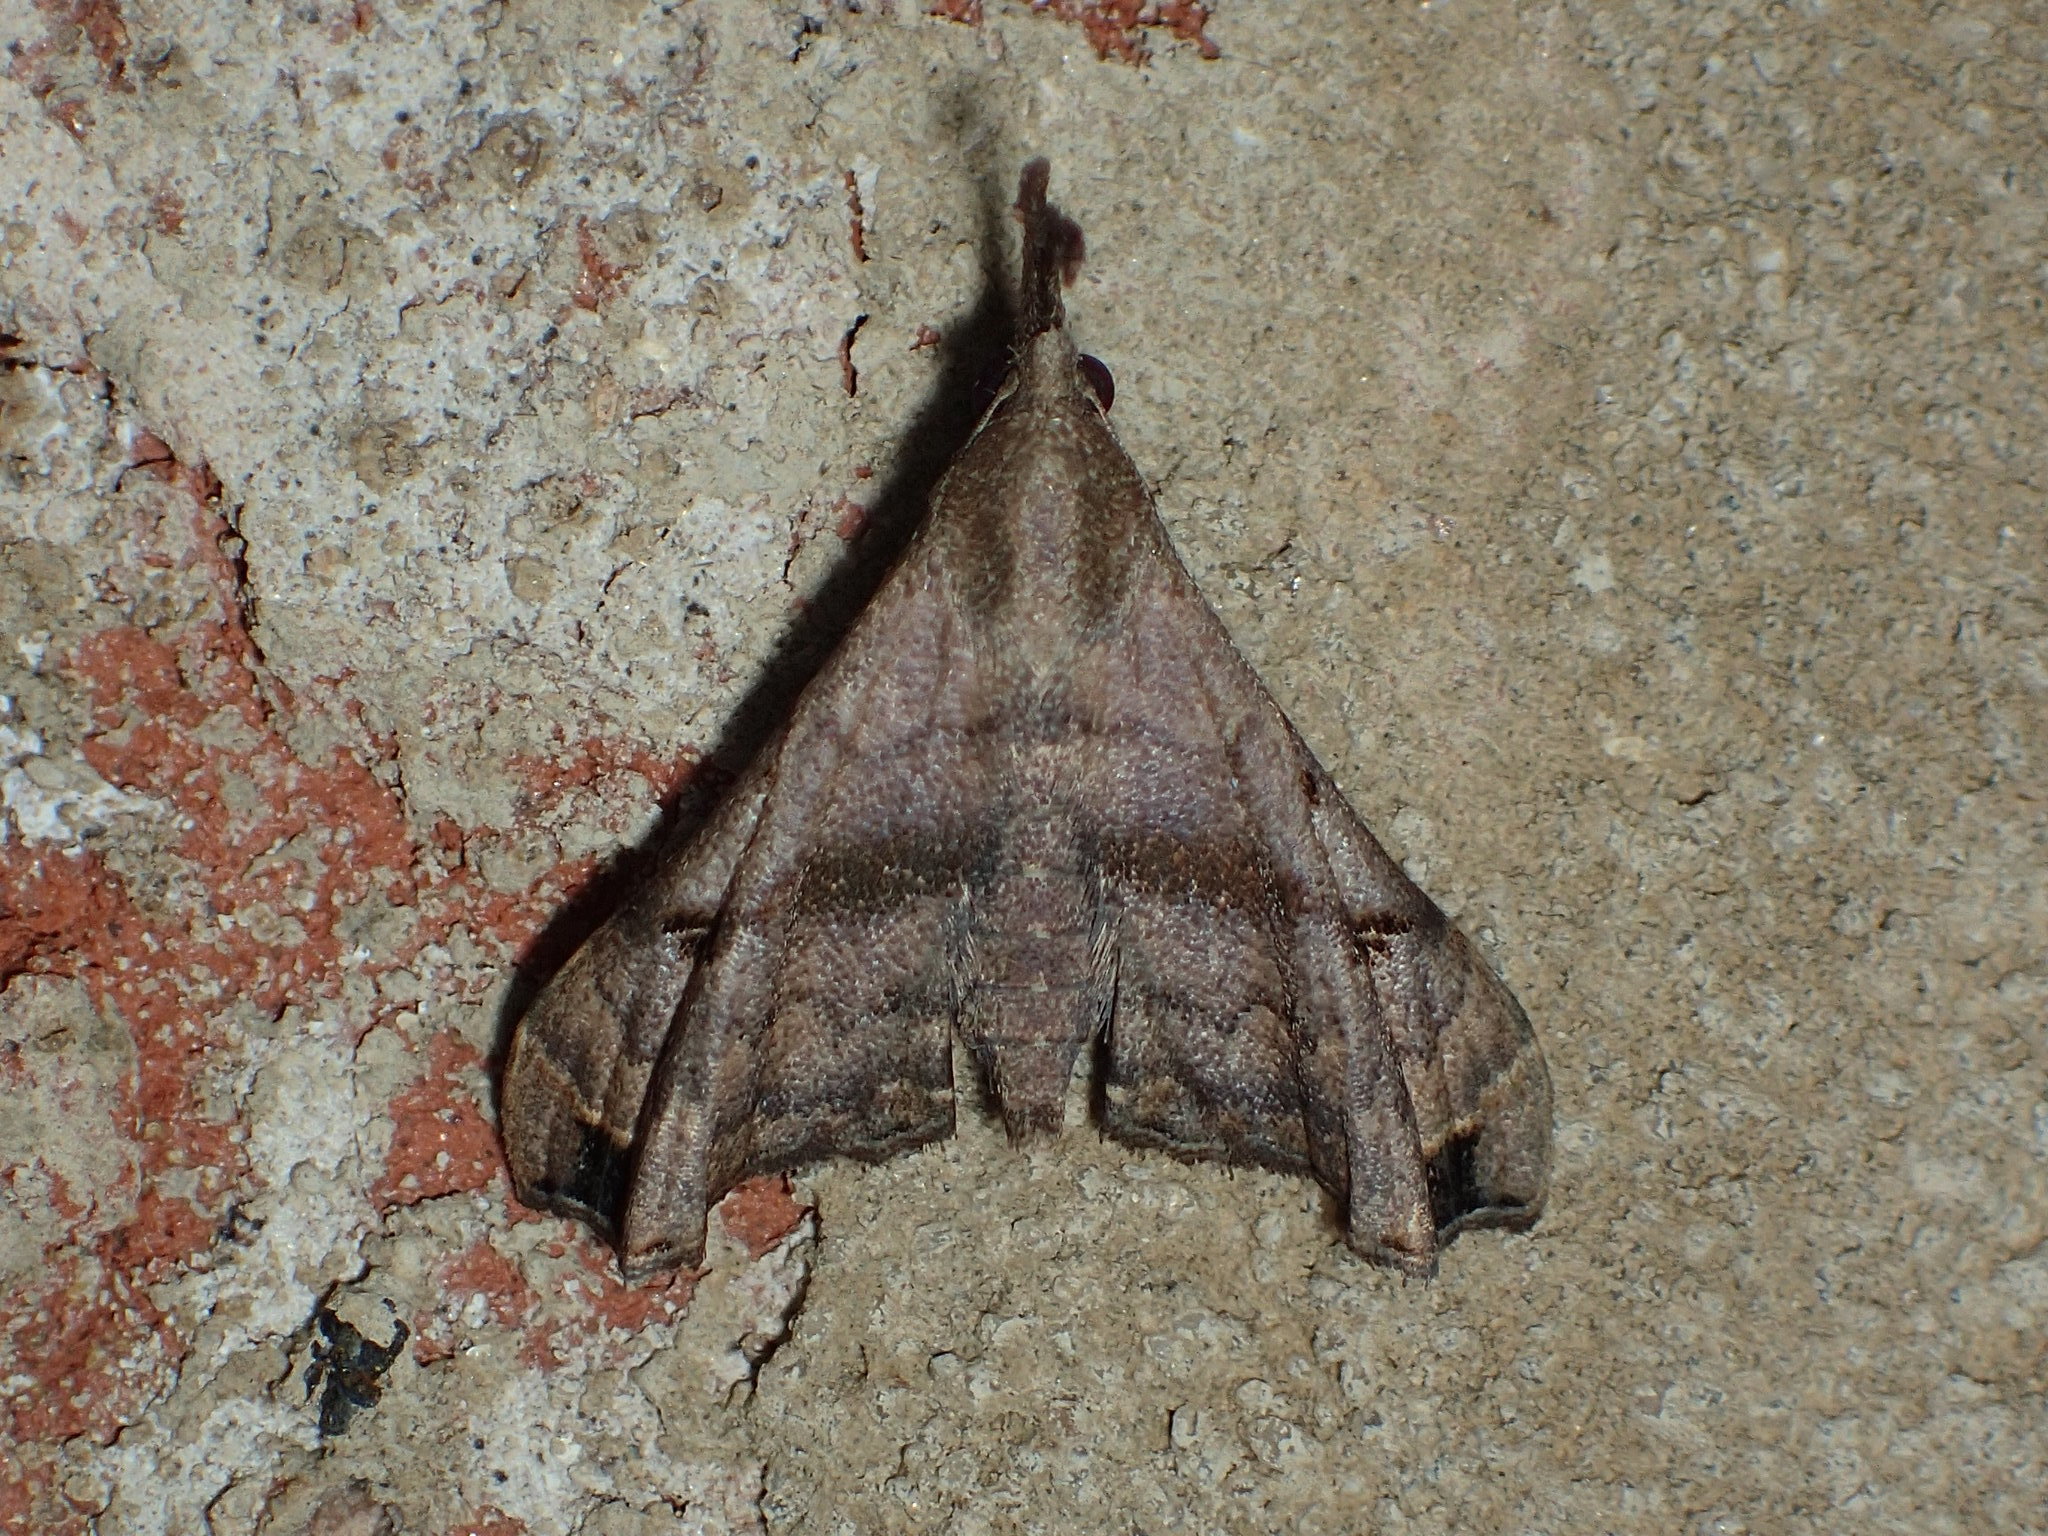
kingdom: Animalia
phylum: Arthropoda
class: Insecta
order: Lepidoptera
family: Erebidae
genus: Palthis
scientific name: Palthis asopialis
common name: Faint-spotted palthis moth
